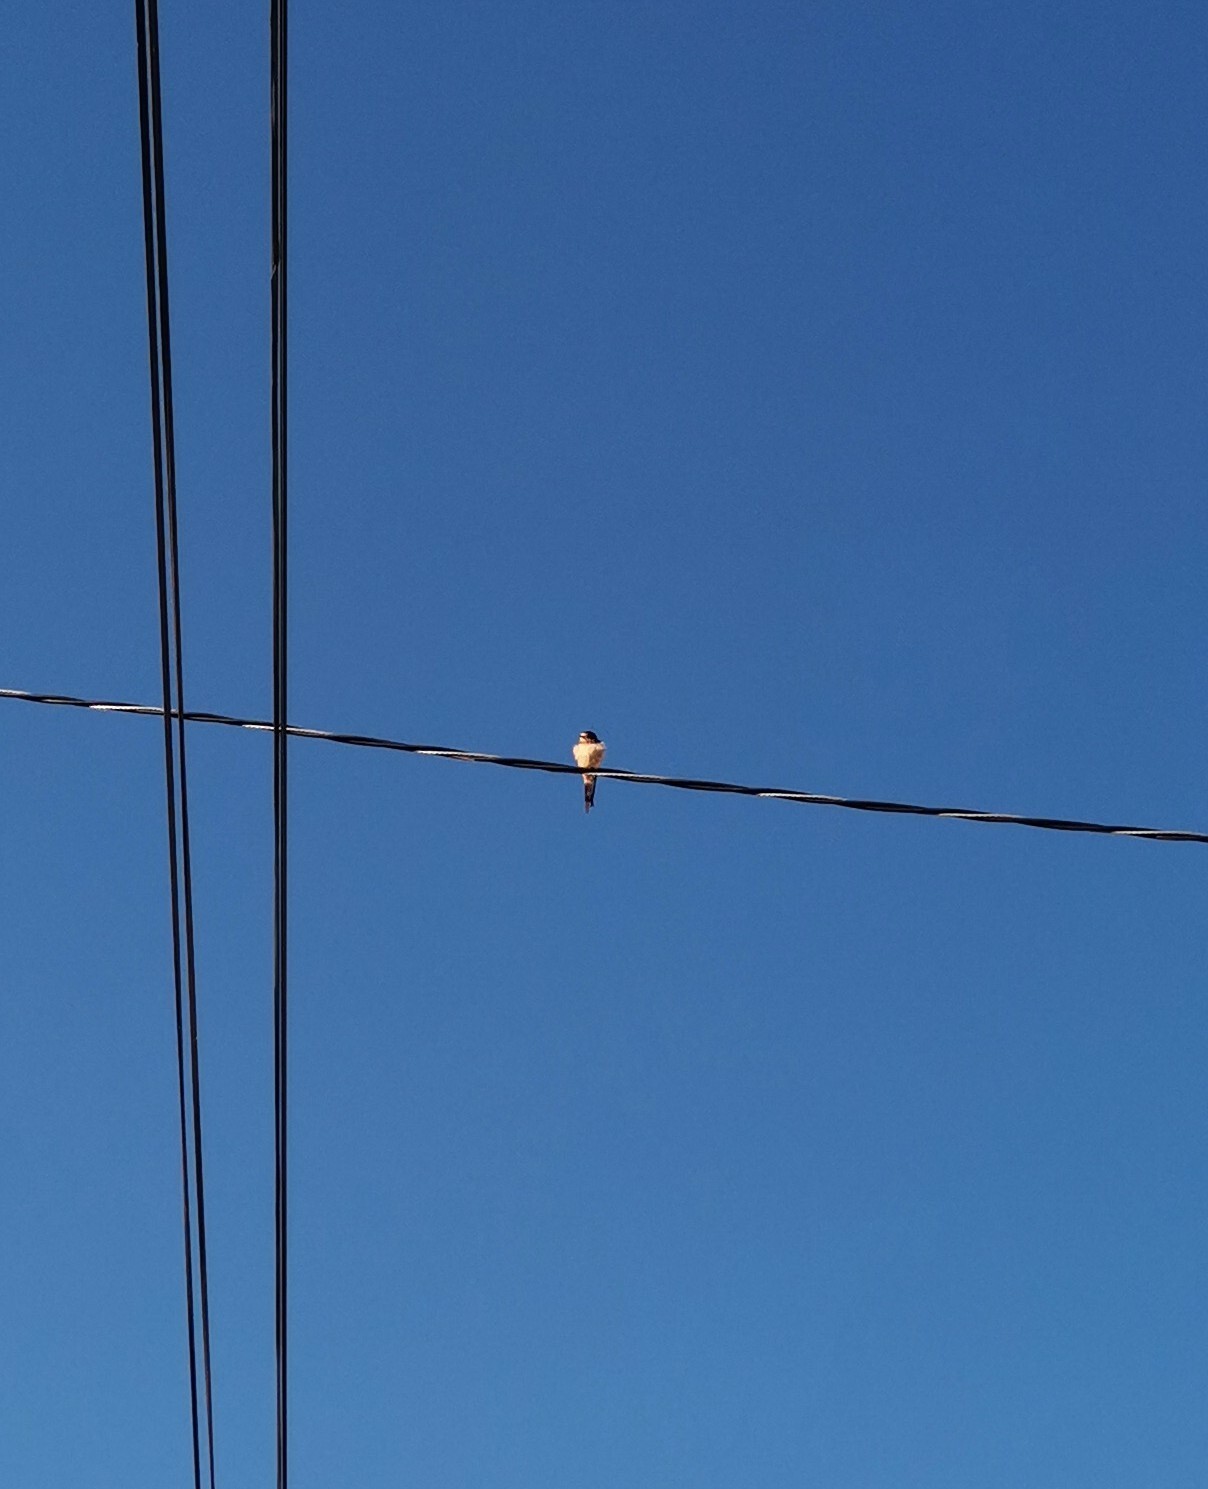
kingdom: Animalia
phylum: Chordata
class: Aves
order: Passeriformes
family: Hirundinidae
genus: Hirundo
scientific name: Hirundo rustica
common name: Barn swallow
